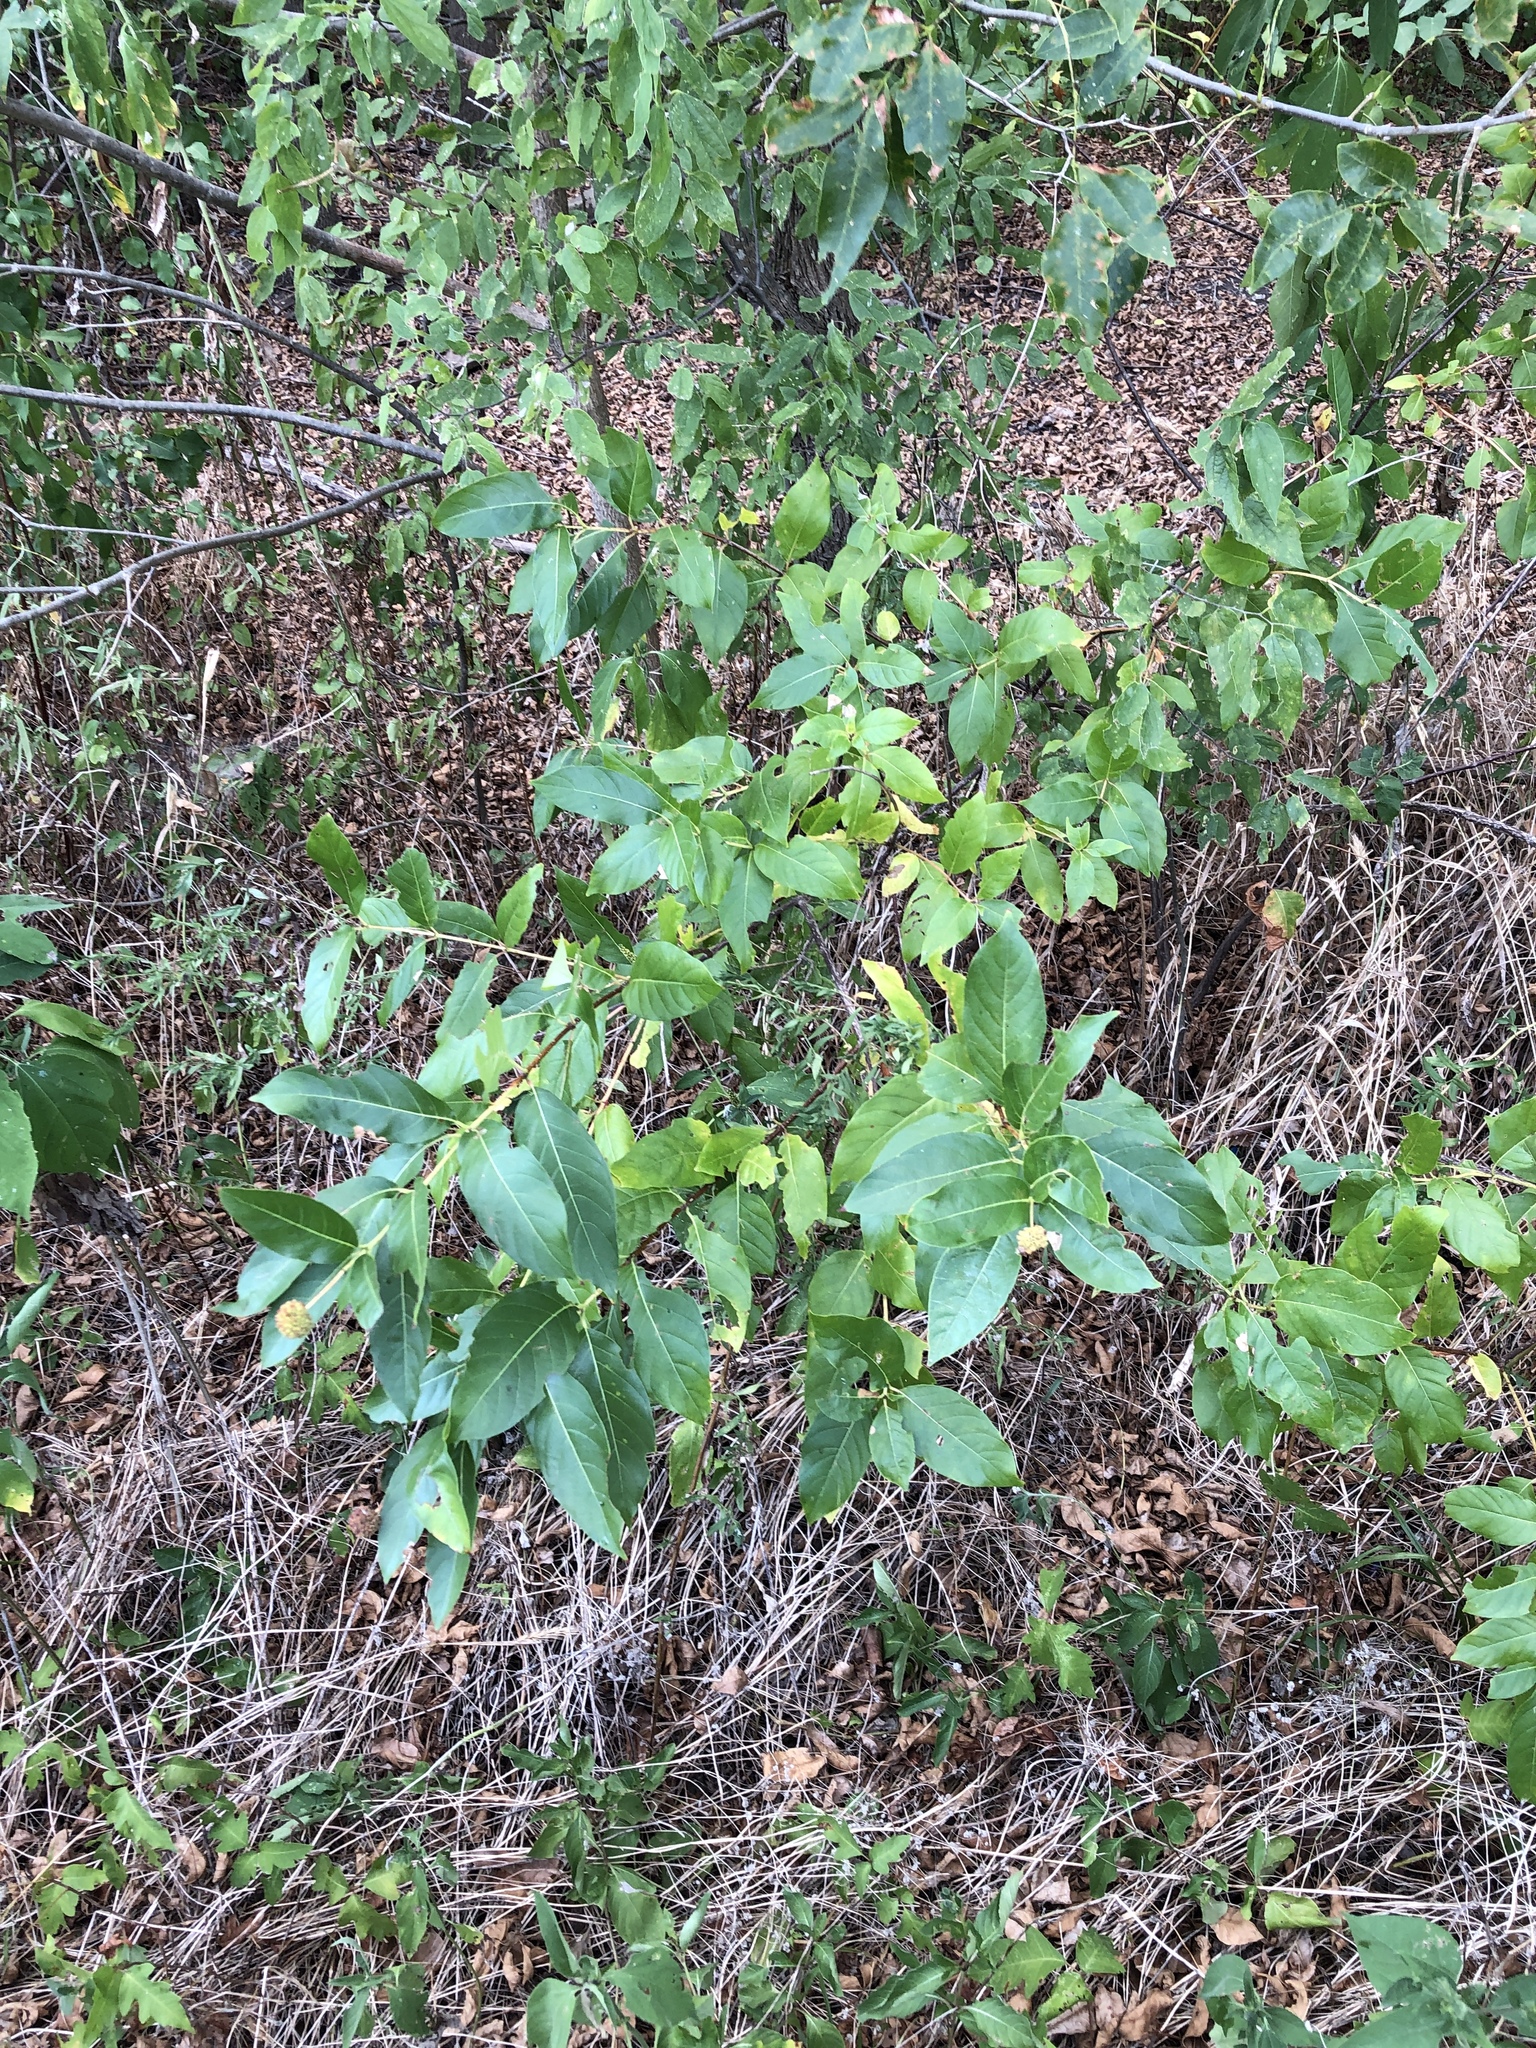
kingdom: Plantae
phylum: Tracheophyta
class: Magnoliopsida
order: Gentianales
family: Rubiaceae
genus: Cephalanthus
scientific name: Cephalanthus occidentalis
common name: Button-willow
